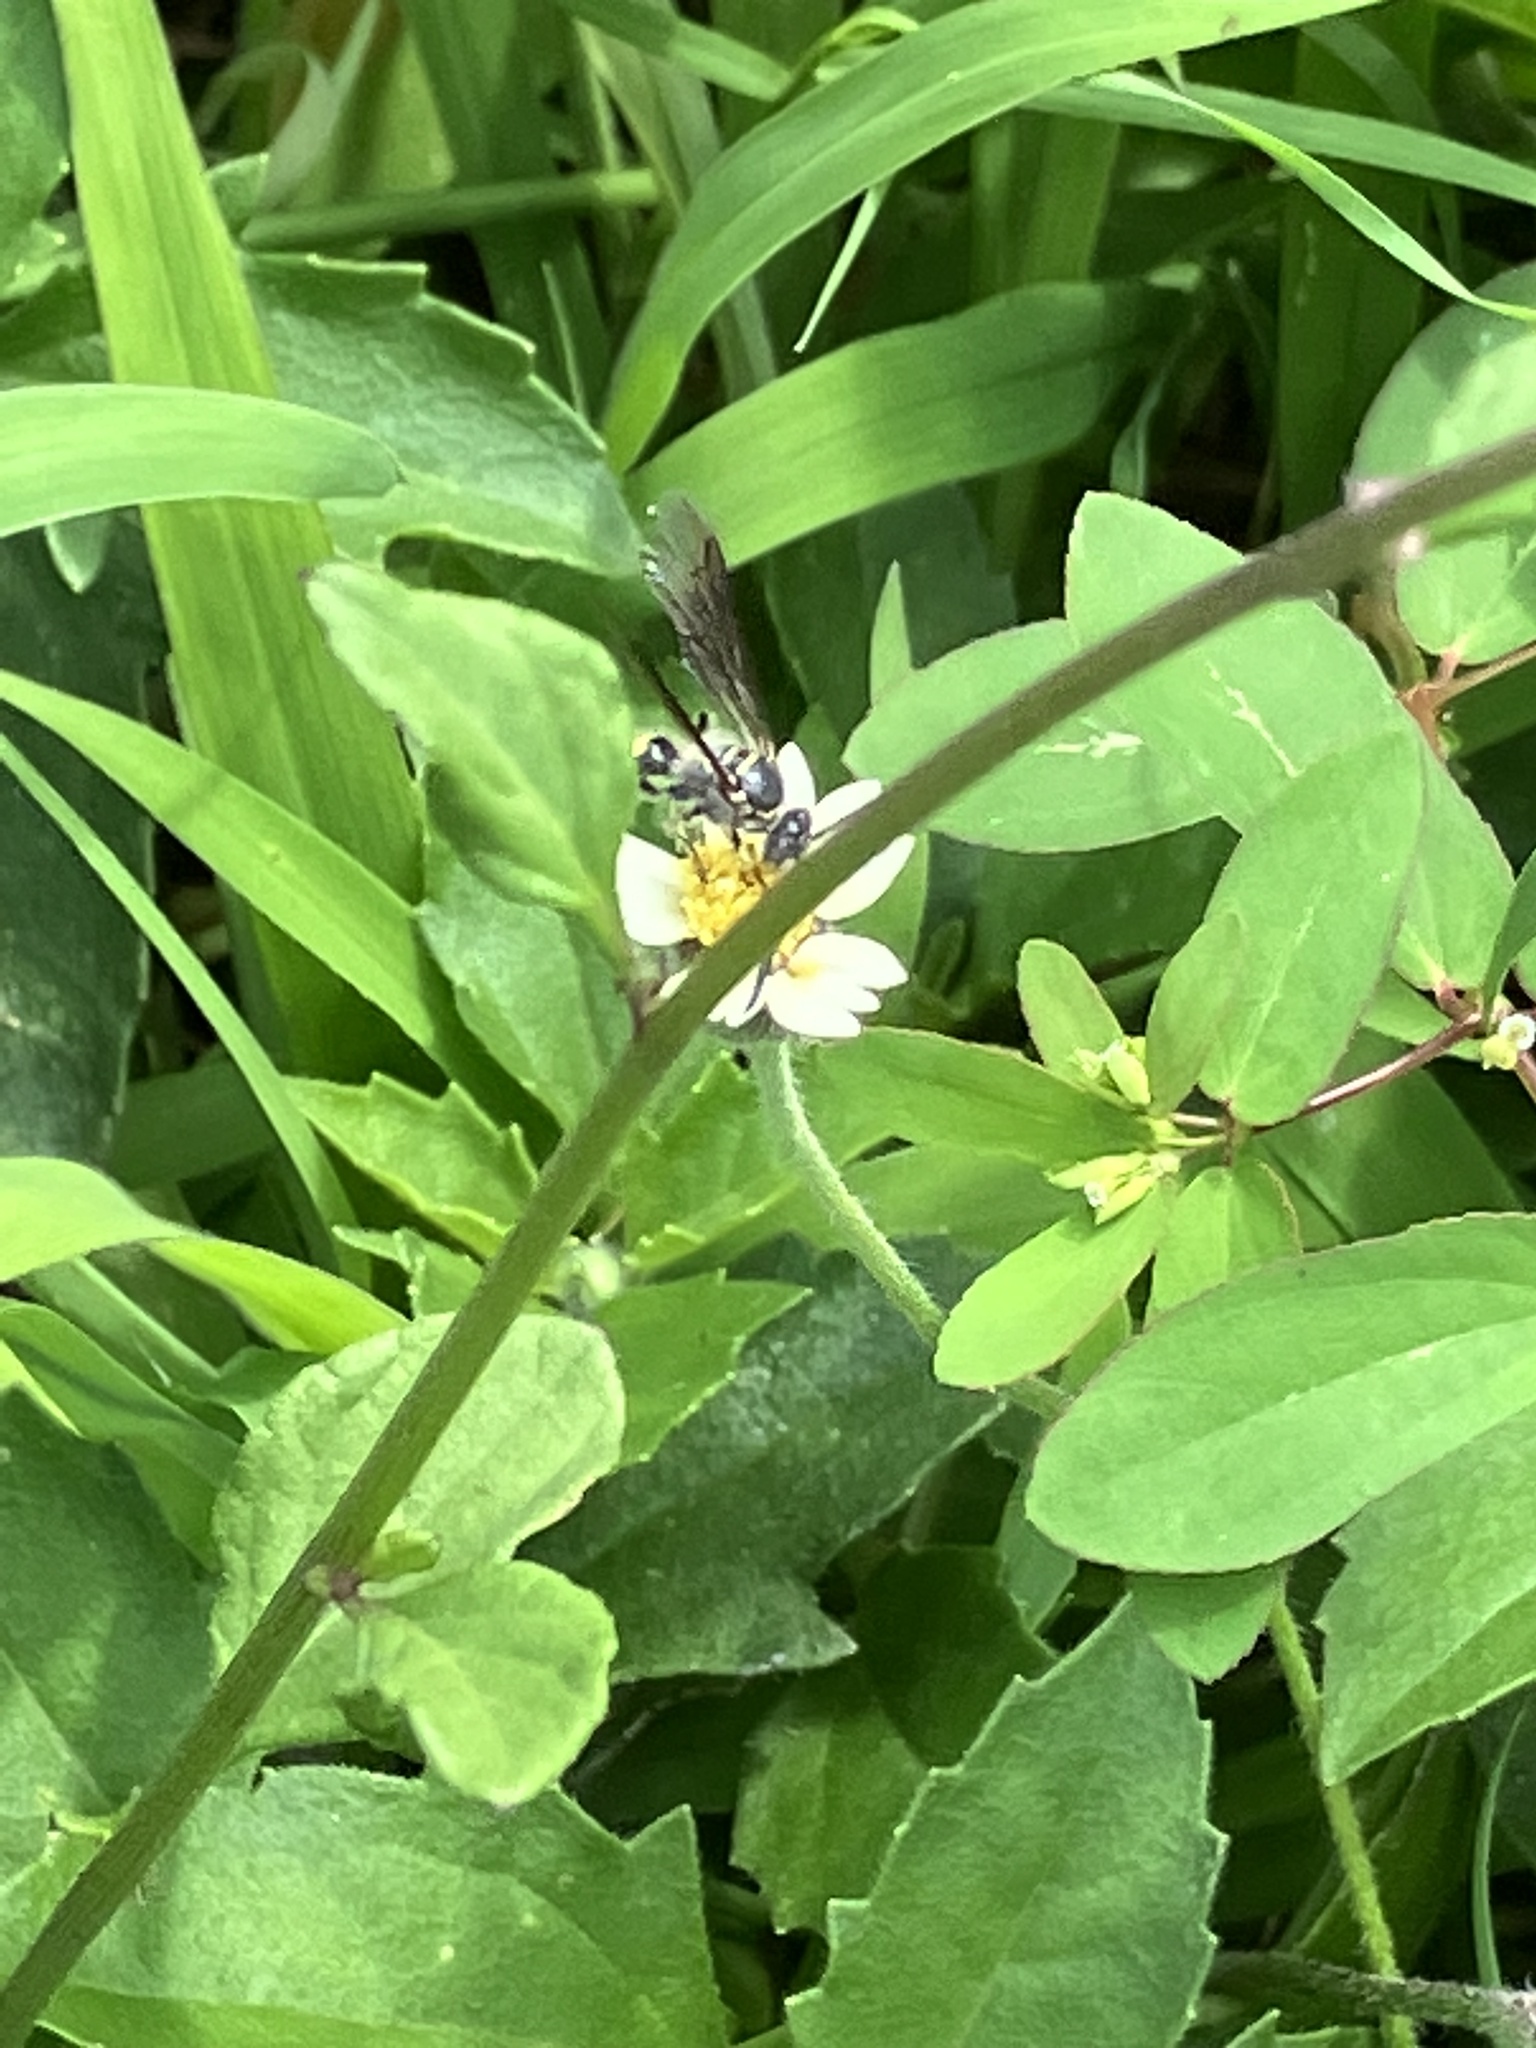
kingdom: Animalia
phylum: Arthropoda
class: Insecta
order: Hymenoptera
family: Scoliidae
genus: Dielis
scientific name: Dielis dorsata
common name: Scoliid wasp
